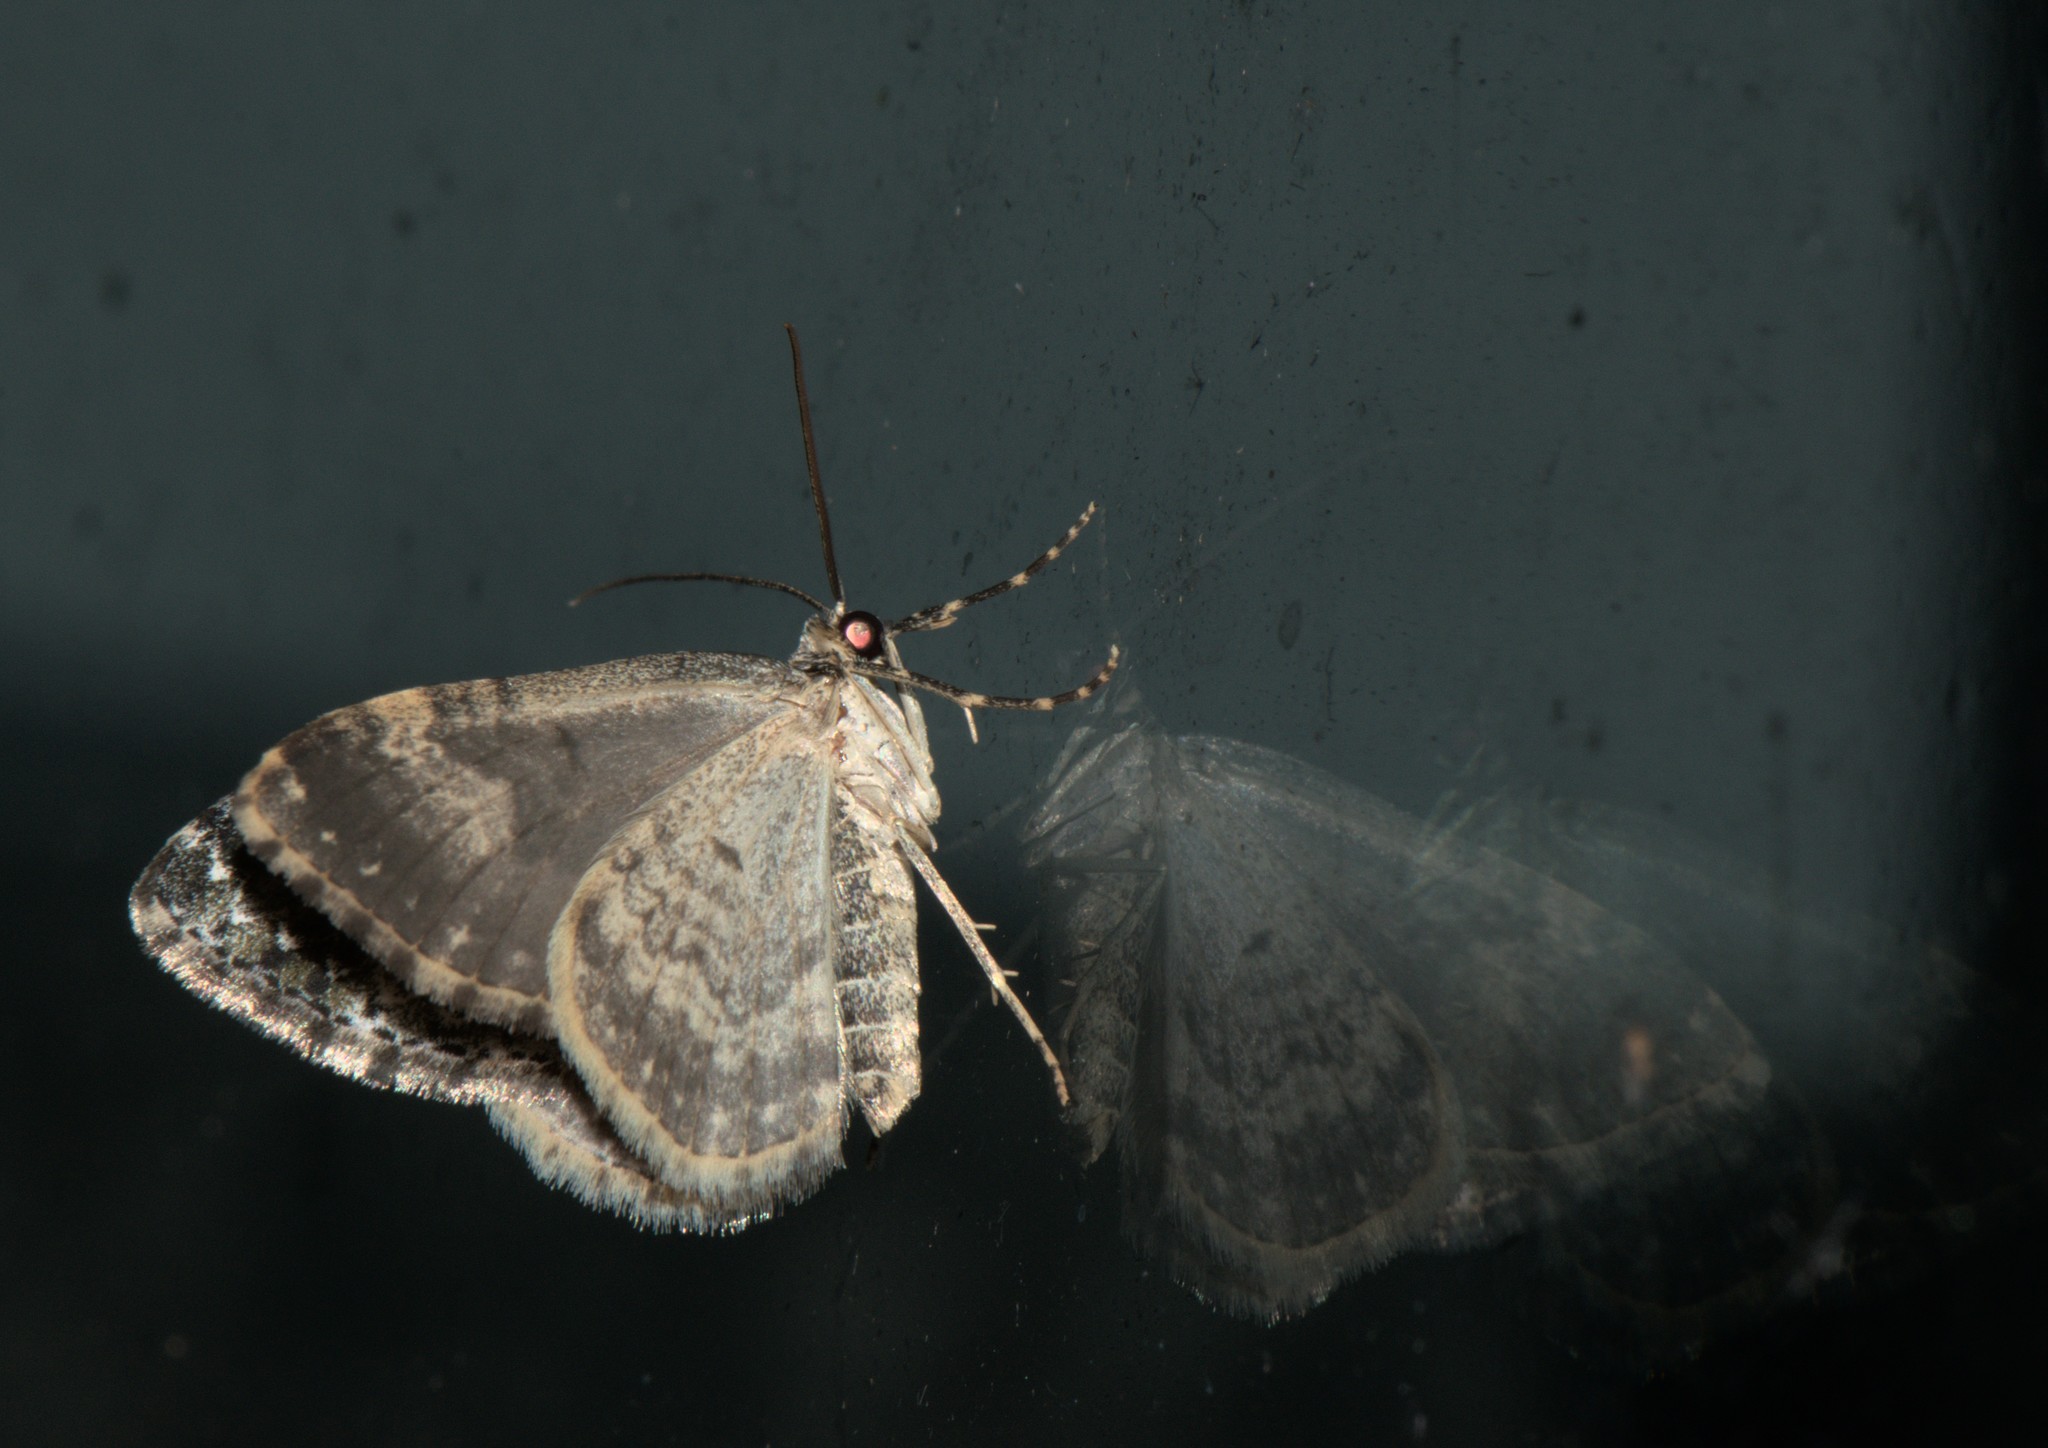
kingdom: Animalia
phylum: Arthropoda
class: Insecta
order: Lepidoptera
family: Geometridae
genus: Euphyia
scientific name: Euphyia ochreata
